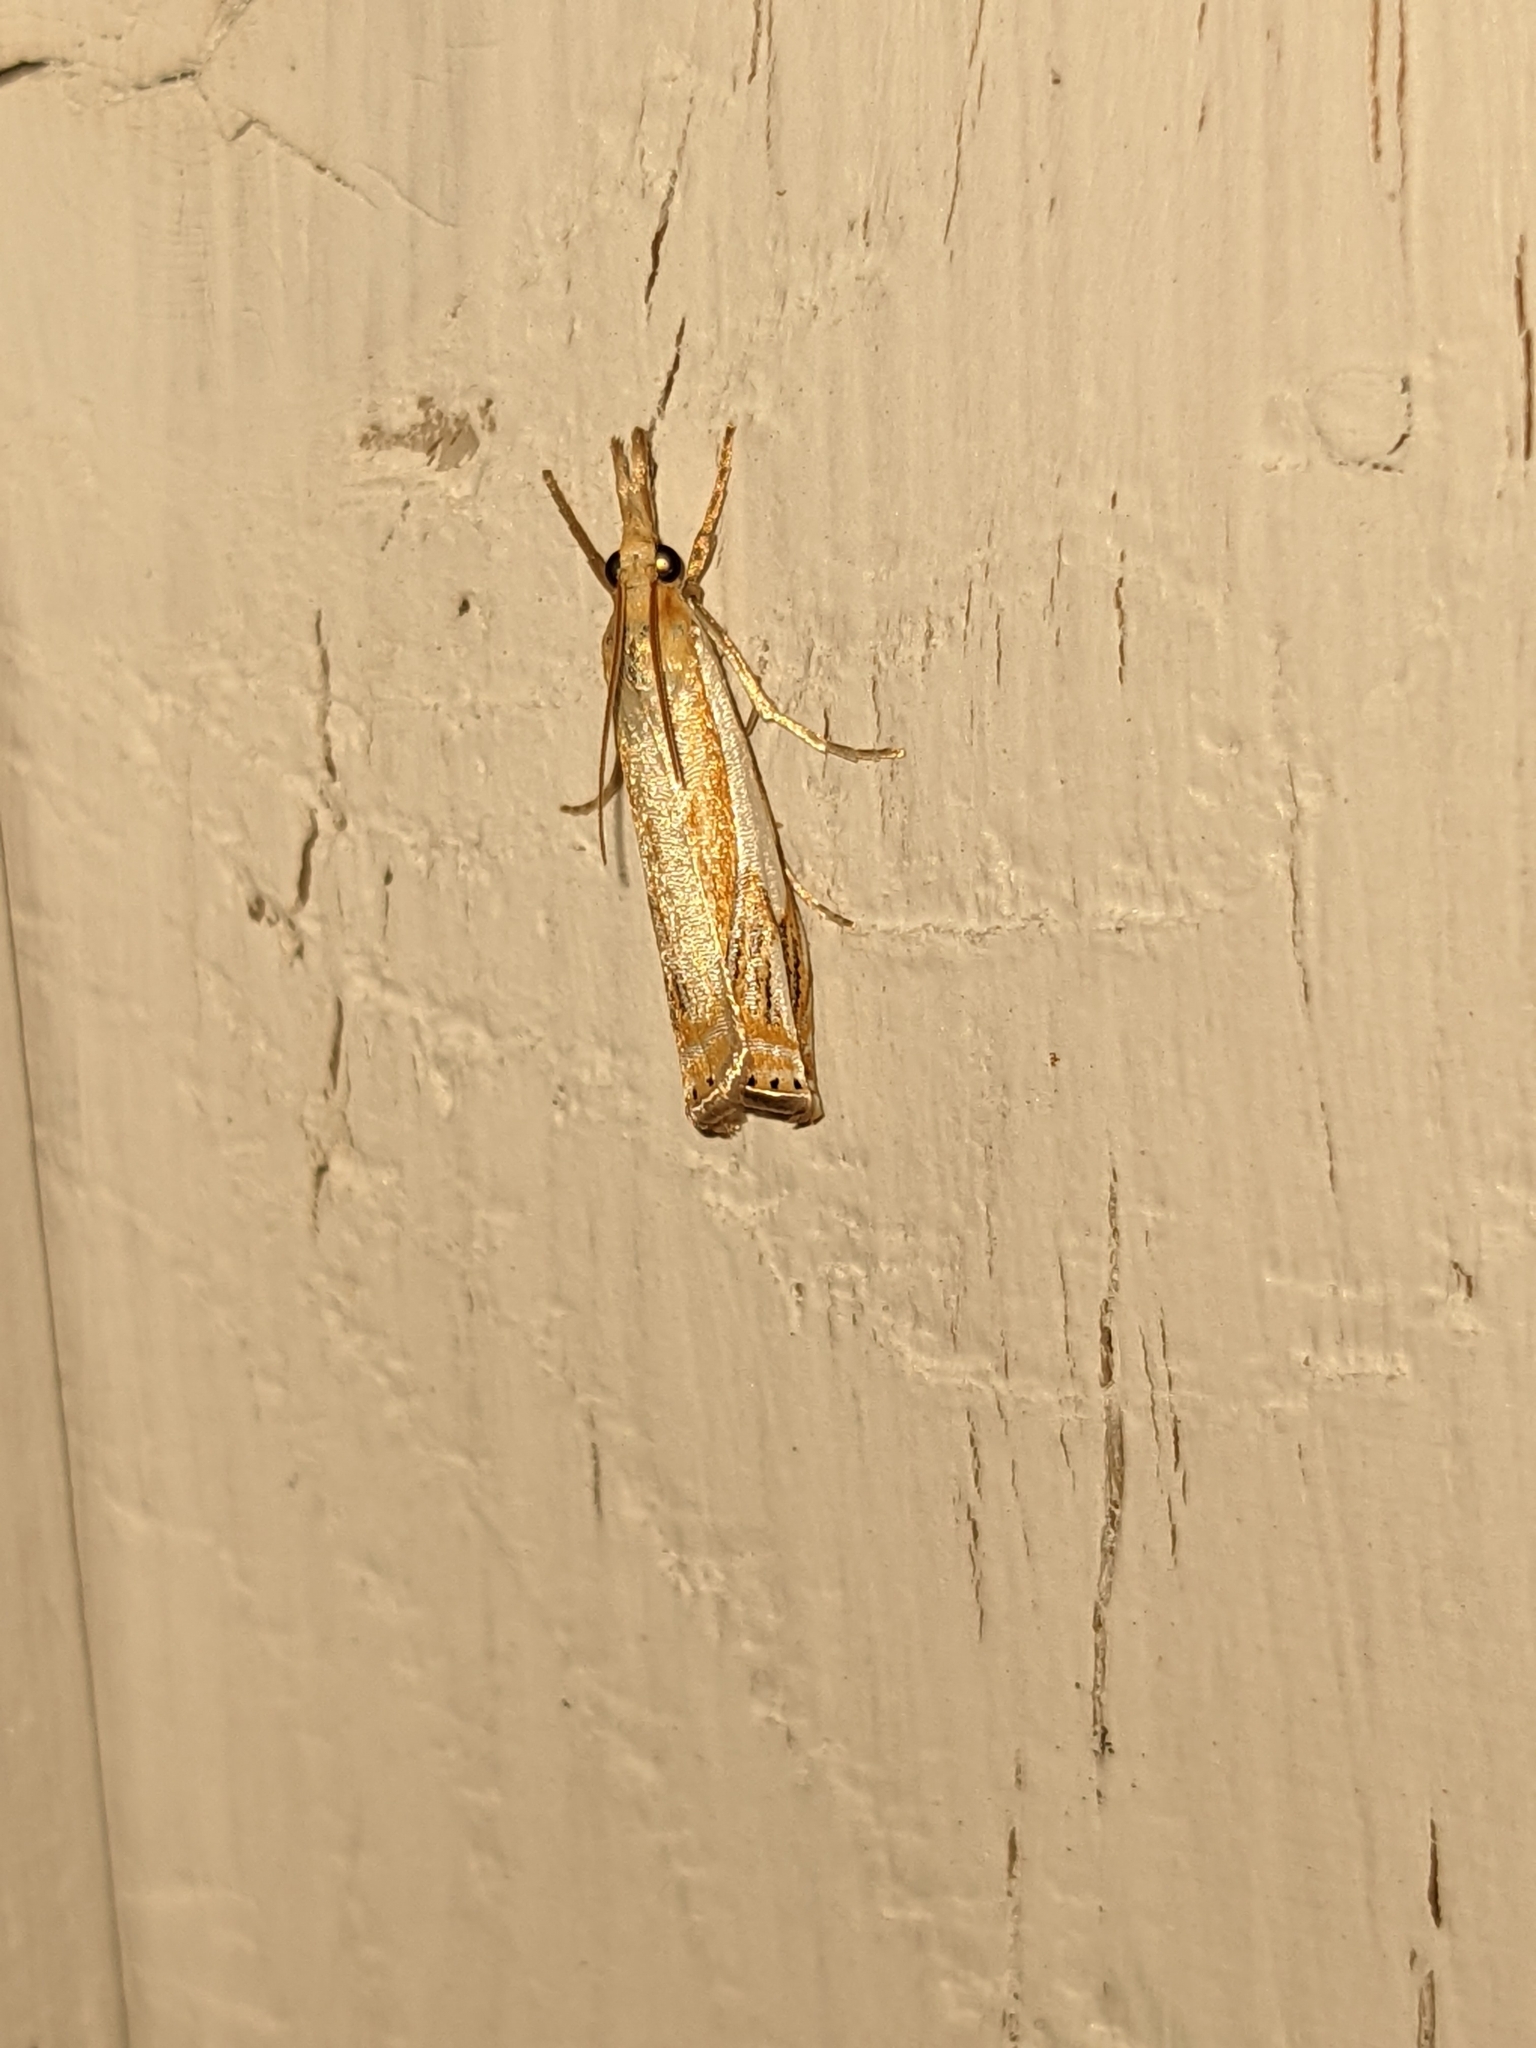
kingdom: Animalia
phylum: Arthropoda
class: Insecta
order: Lepidoptera
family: Crambidae
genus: Crambus
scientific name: Crambus agitatellus
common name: Double-banded grass-veneer
